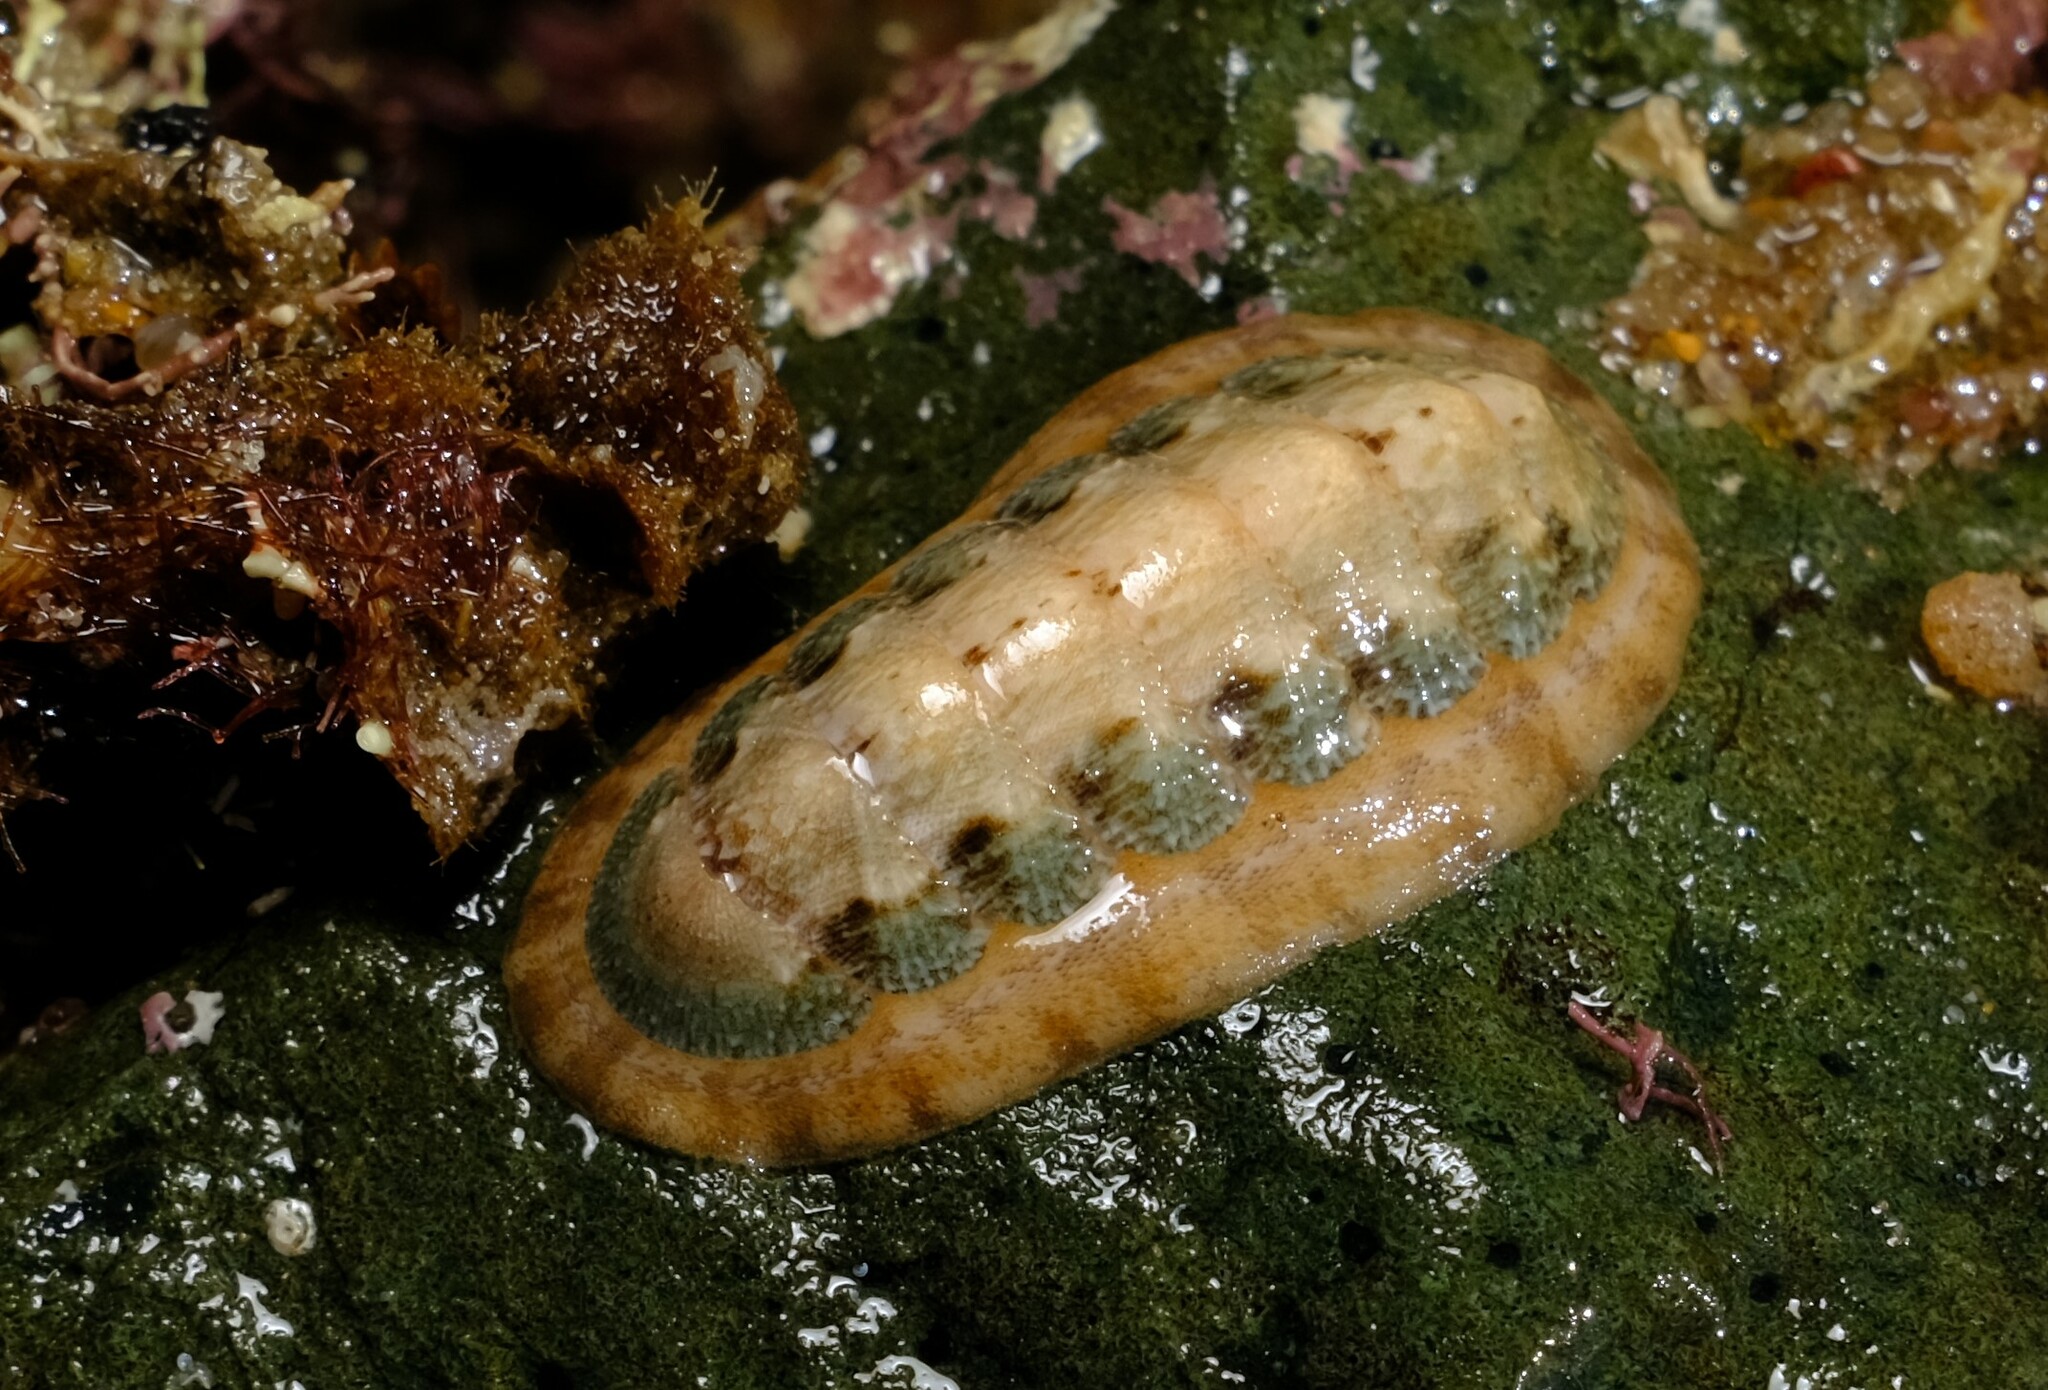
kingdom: Animalia
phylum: Mollusca
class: Polyplacophora
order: Chitonida
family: Ischnochitonidae
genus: Ischnochiton
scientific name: Ischnochiton fruticosus
